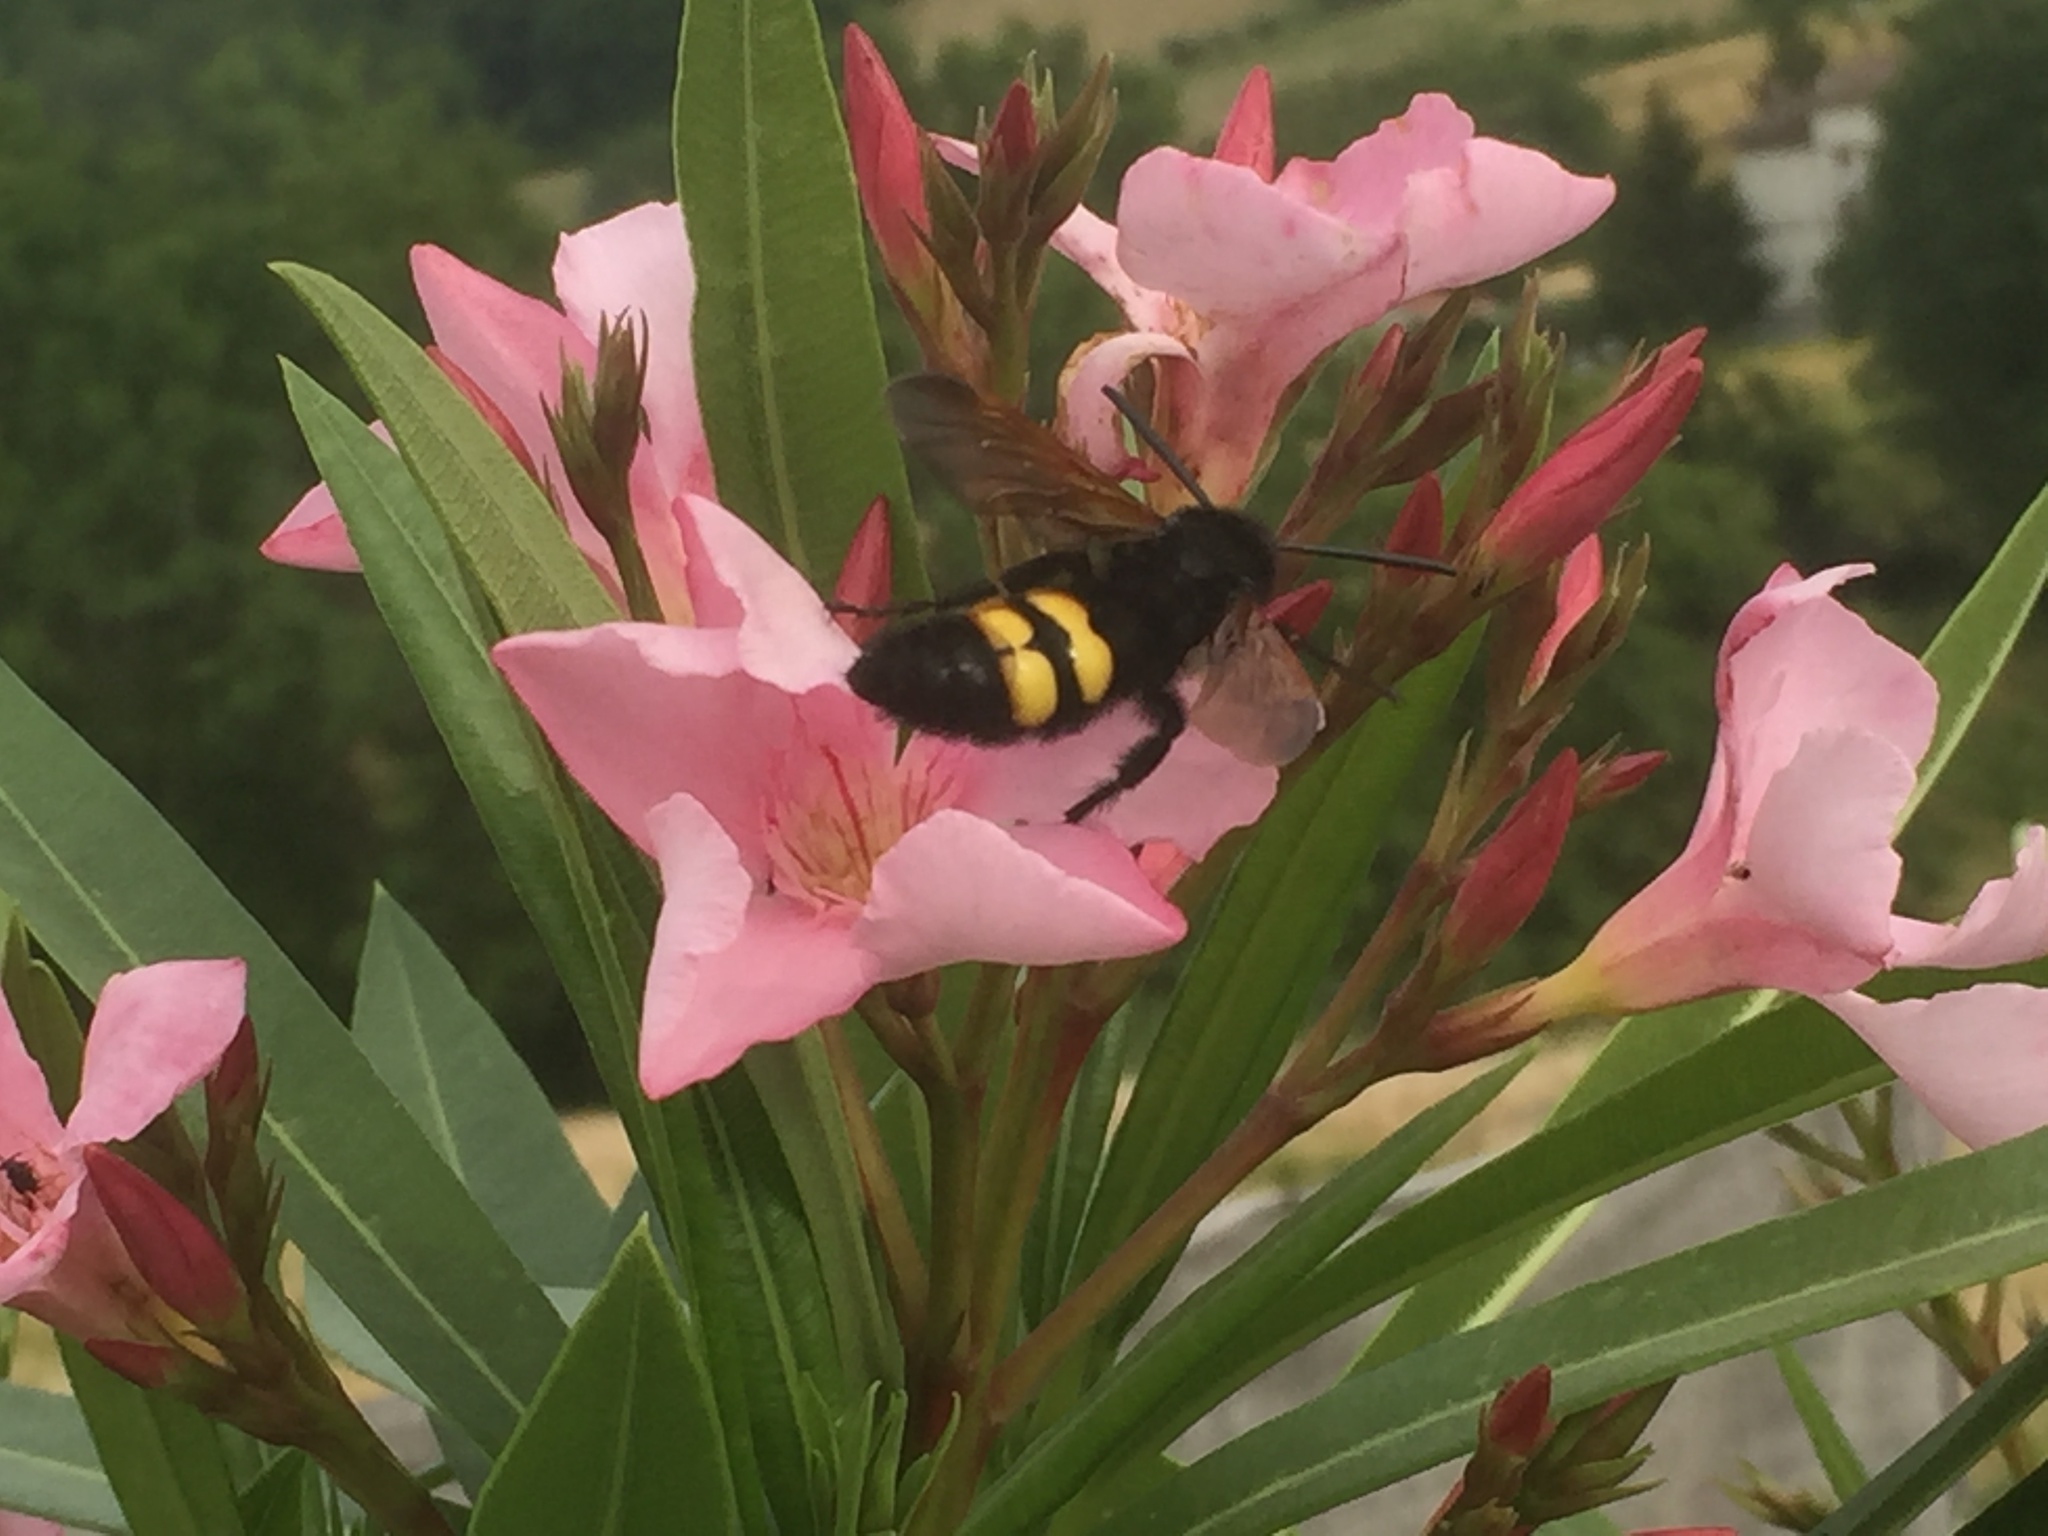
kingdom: Animalia
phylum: Arthropoda
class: Insecta
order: Hymenoptera
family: Scoliidae
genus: Megascolia
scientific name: Megascolia maculata
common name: Mammoth wasp
